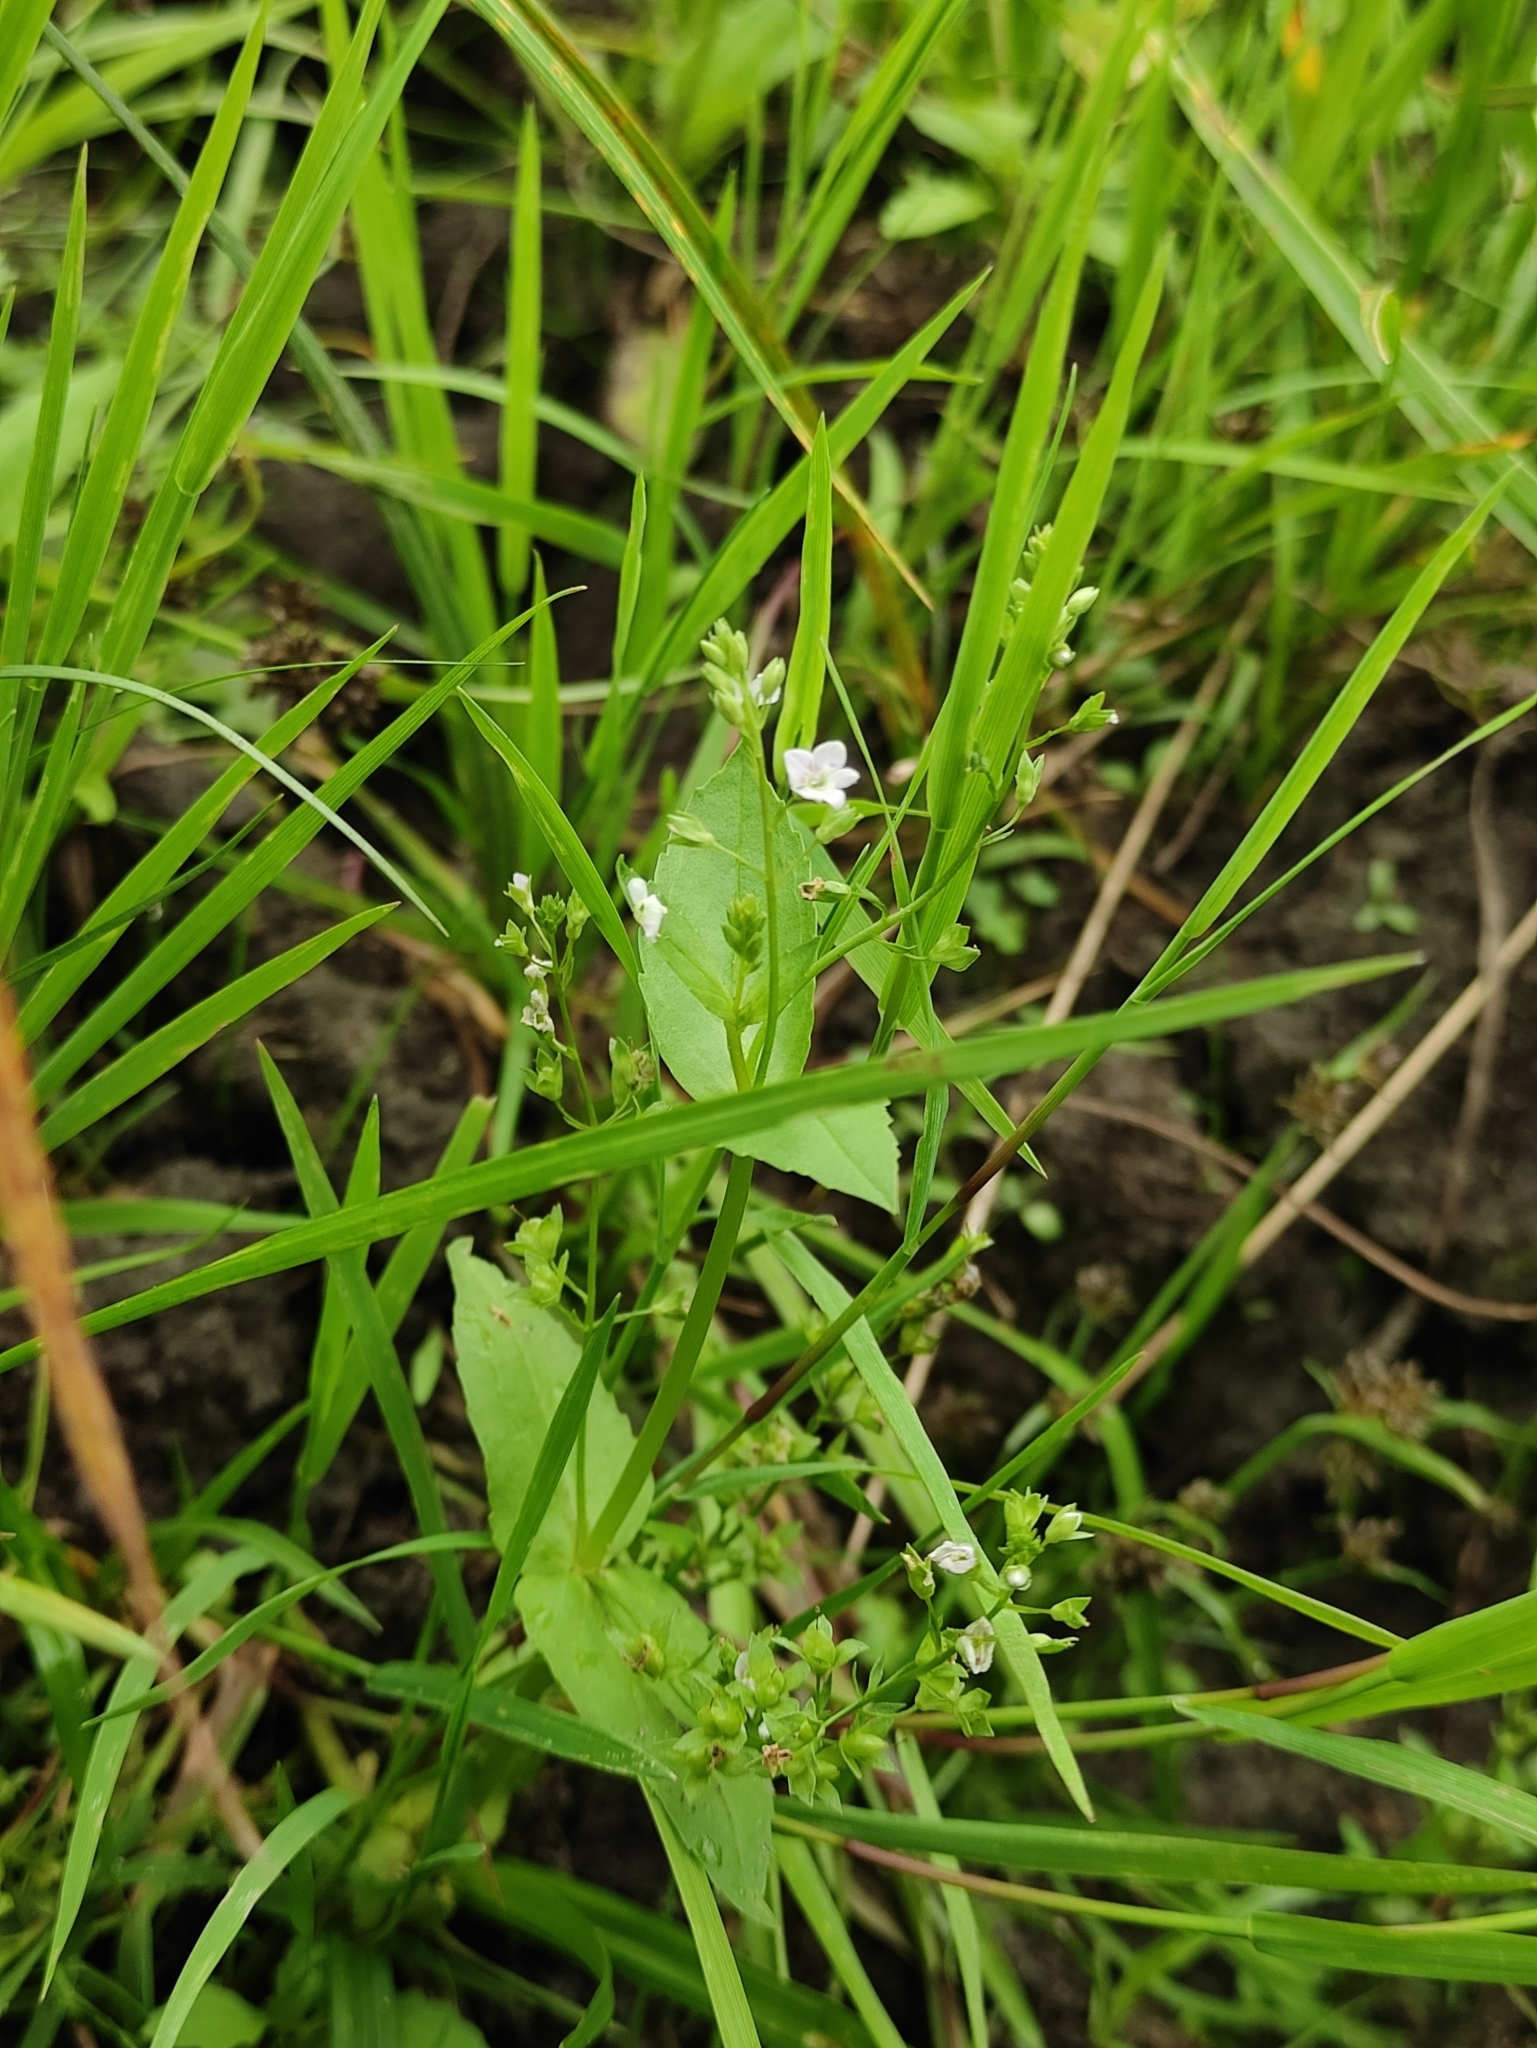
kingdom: Plantae
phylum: Tracheophyta
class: Magnoliopsida
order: Lamiales
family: Plantaginaceae
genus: Veronica
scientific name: Veronica anagallis-aquatica
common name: Water speedwell
